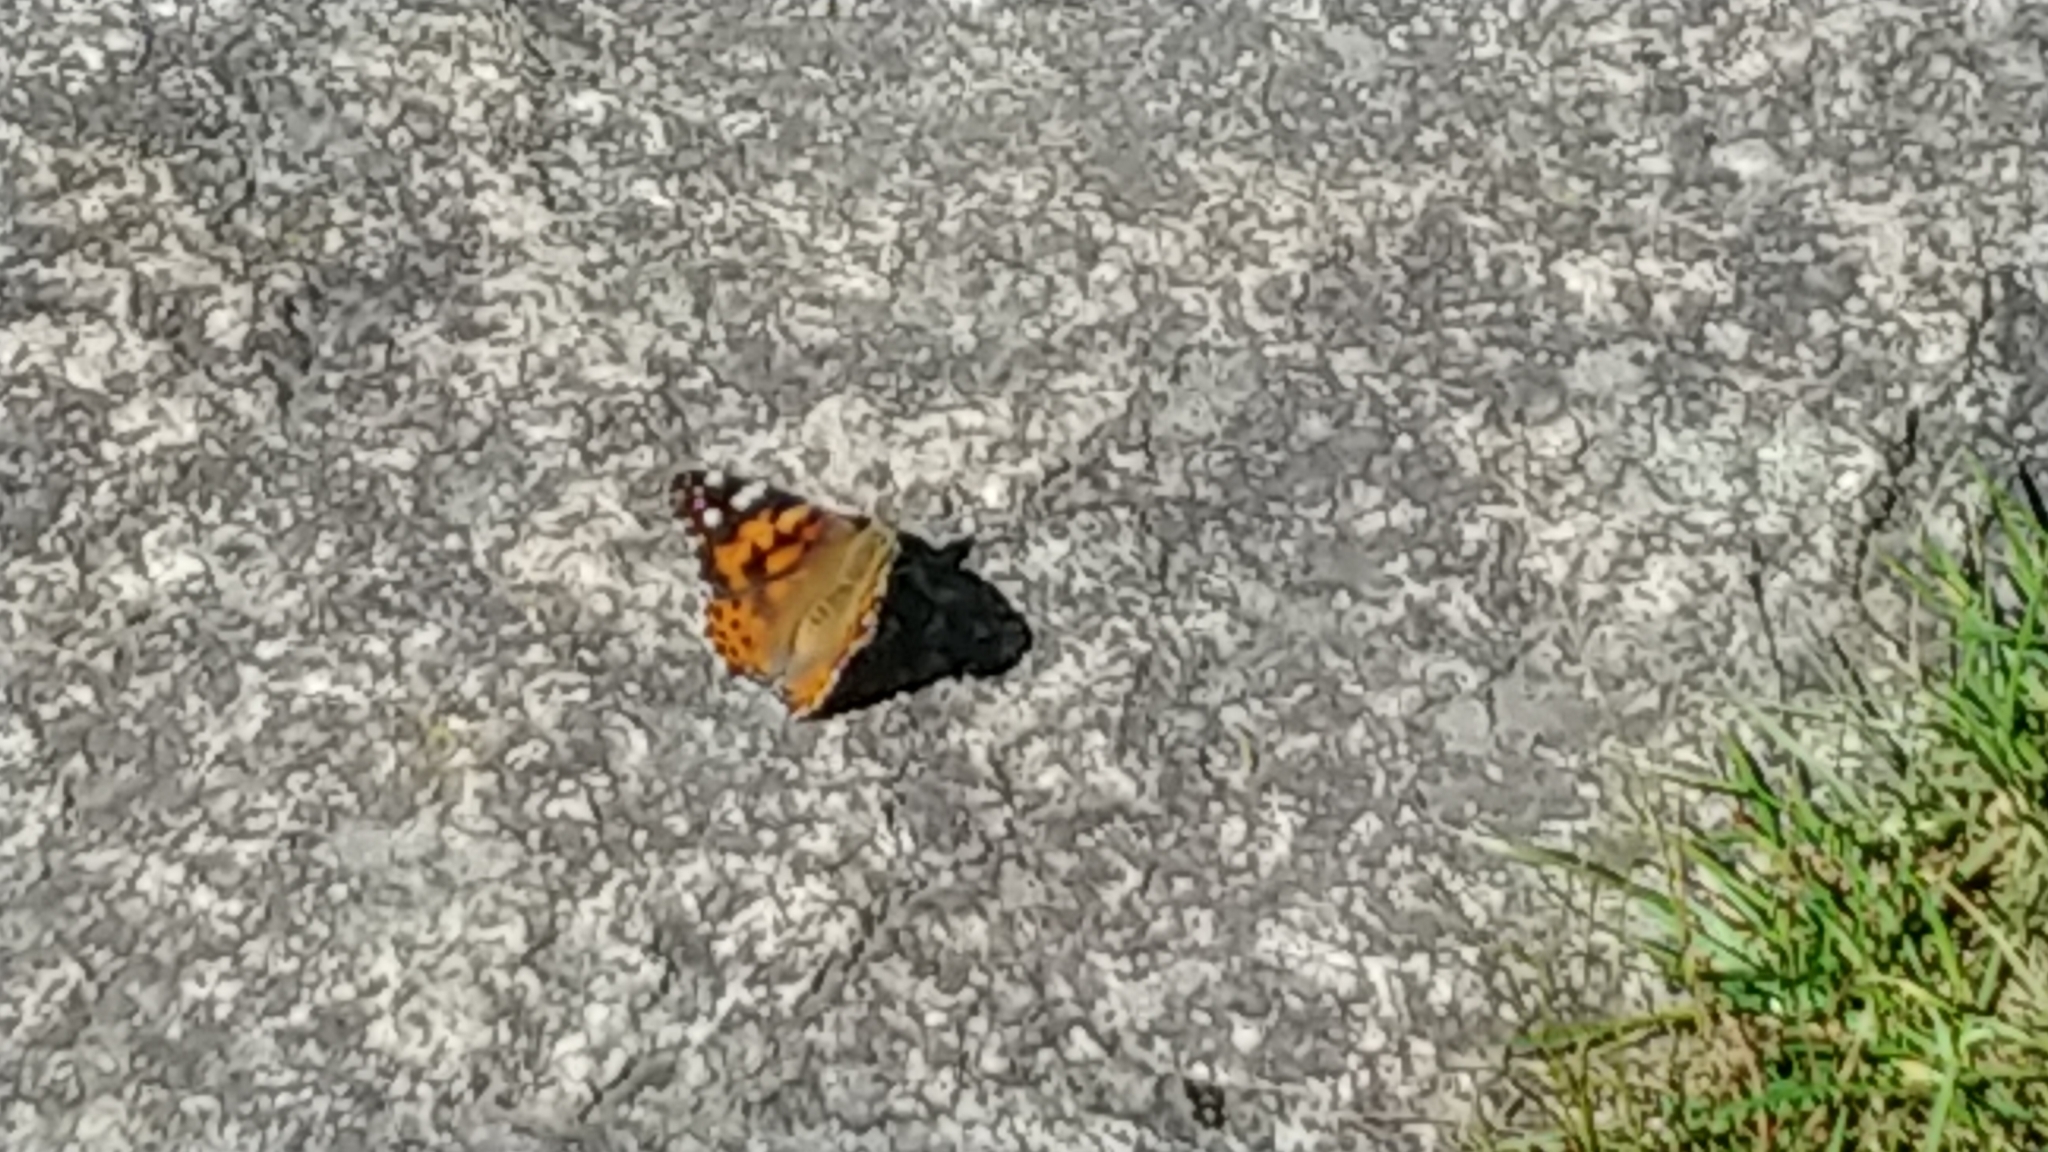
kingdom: Animalia
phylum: Arthropoda
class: Insecta
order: Lepidoptera
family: Nymphalidae
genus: Vanessa
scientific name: Vanessa cardui
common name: Painted lady
